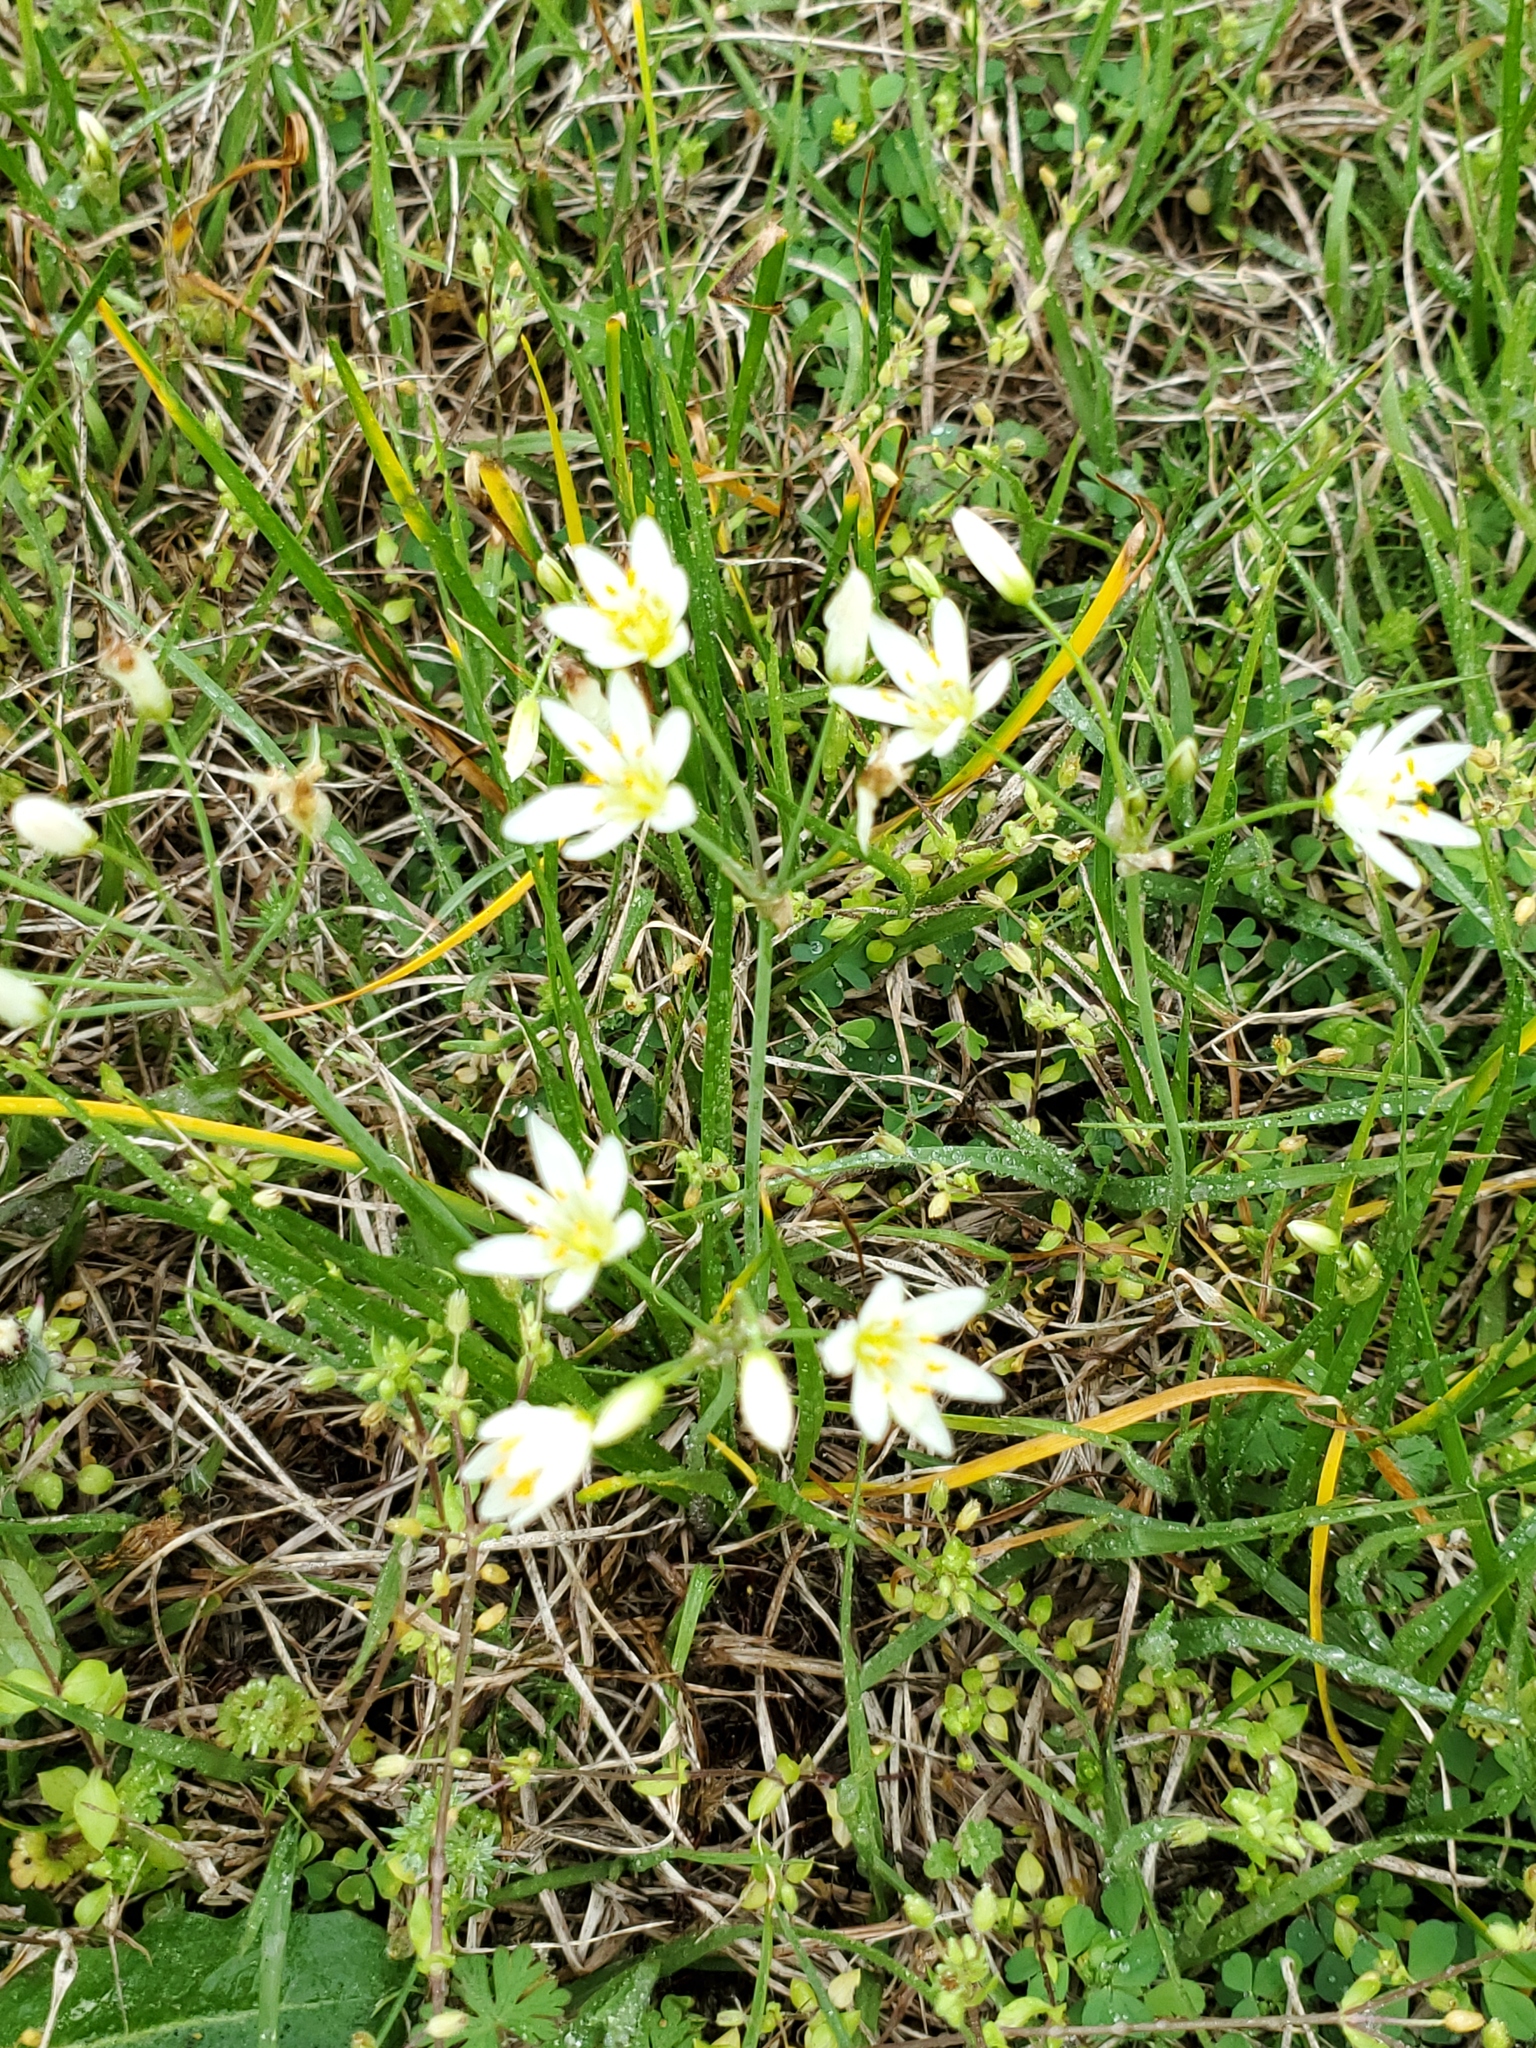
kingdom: Plantae
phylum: Tracheophyta
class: Liliopsida
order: Asparagales
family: Amaryllidaceae
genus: Nothoscordum
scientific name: Nothoscordum bivalve
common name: Crow-poison
